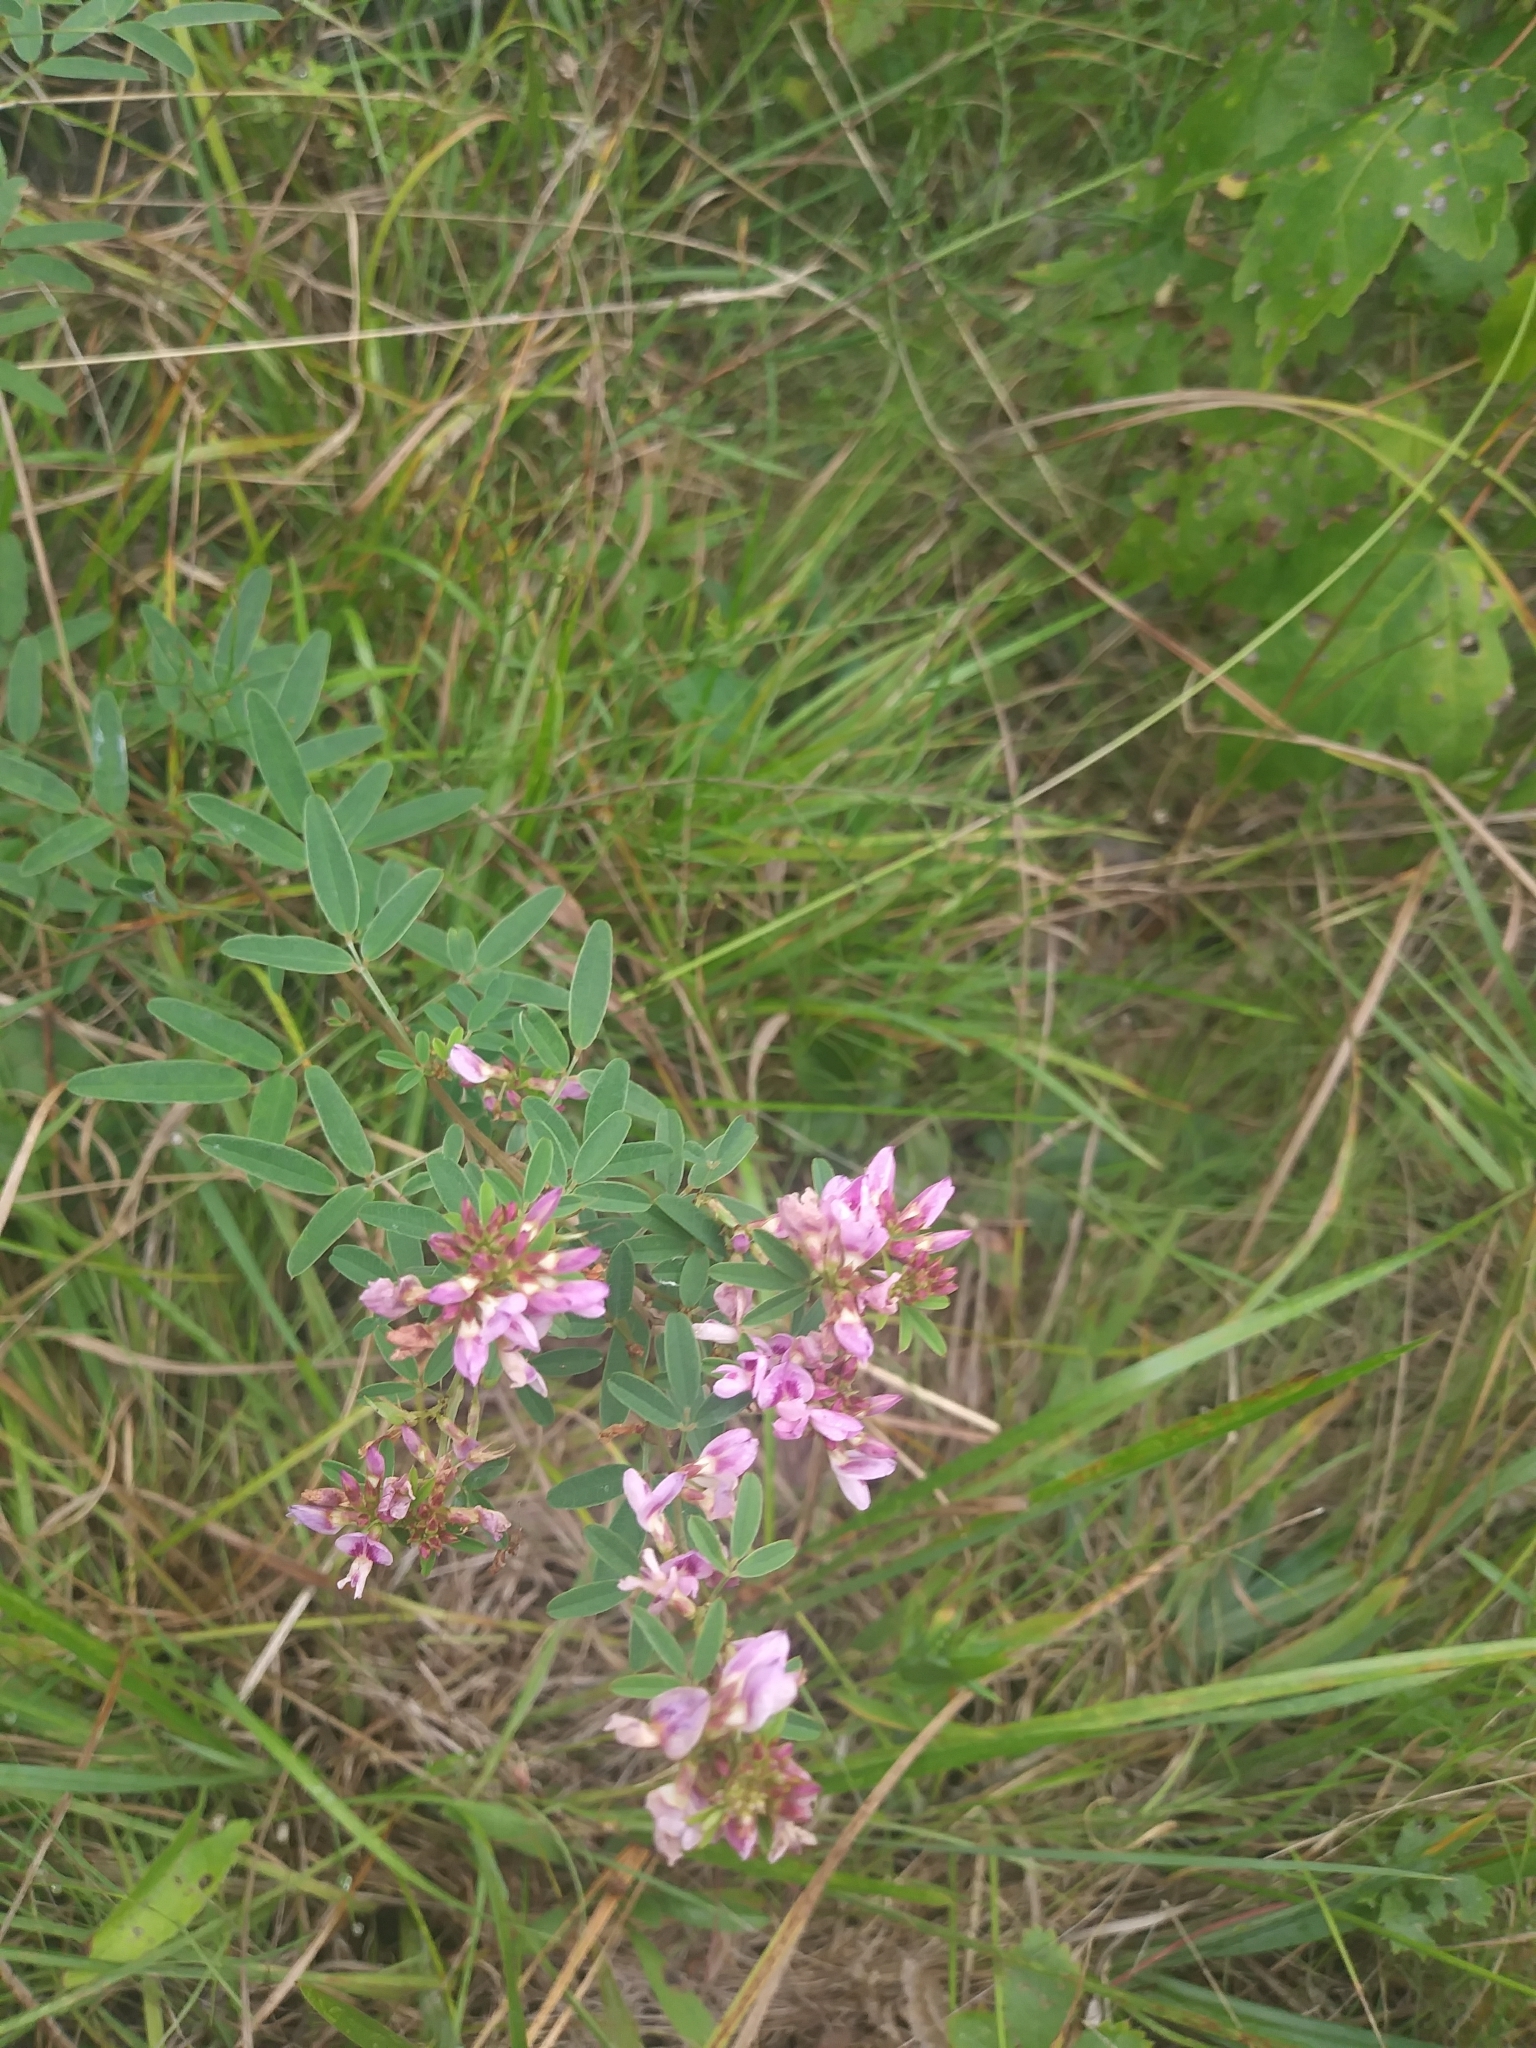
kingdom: Plantae
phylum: Tracheophyta
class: Magnoliopsida
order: Fabales
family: Fabaceae
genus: Lespedeza
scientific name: Lespedeza virginica
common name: Slender bush-clover
